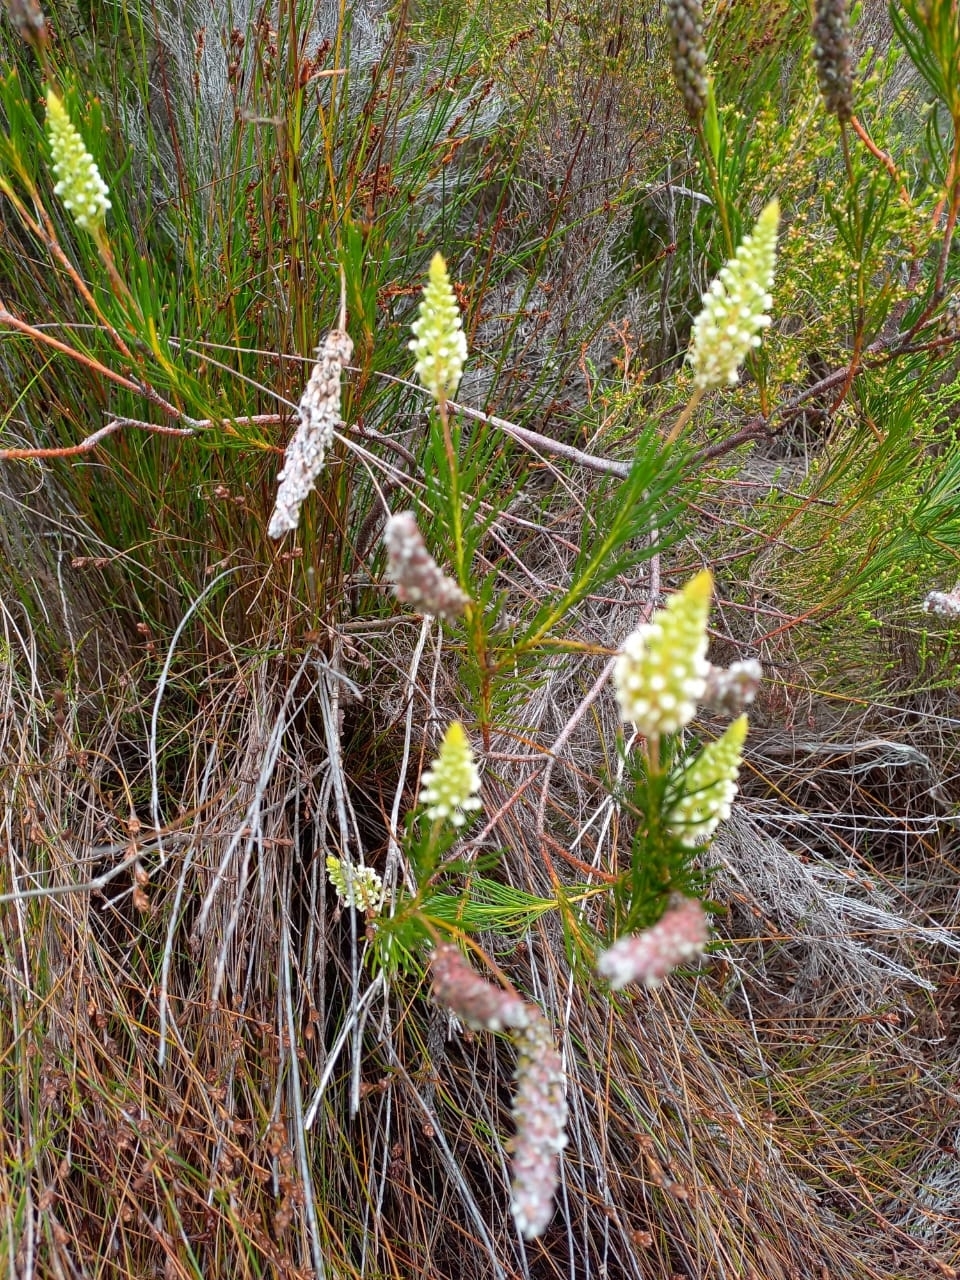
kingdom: Plantae
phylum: Tracheophyta
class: Magnoliopsida
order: Proteales
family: Proteaceae
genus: Spatalla
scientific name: Spatalla curvifolia
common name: White-stalked spoon
